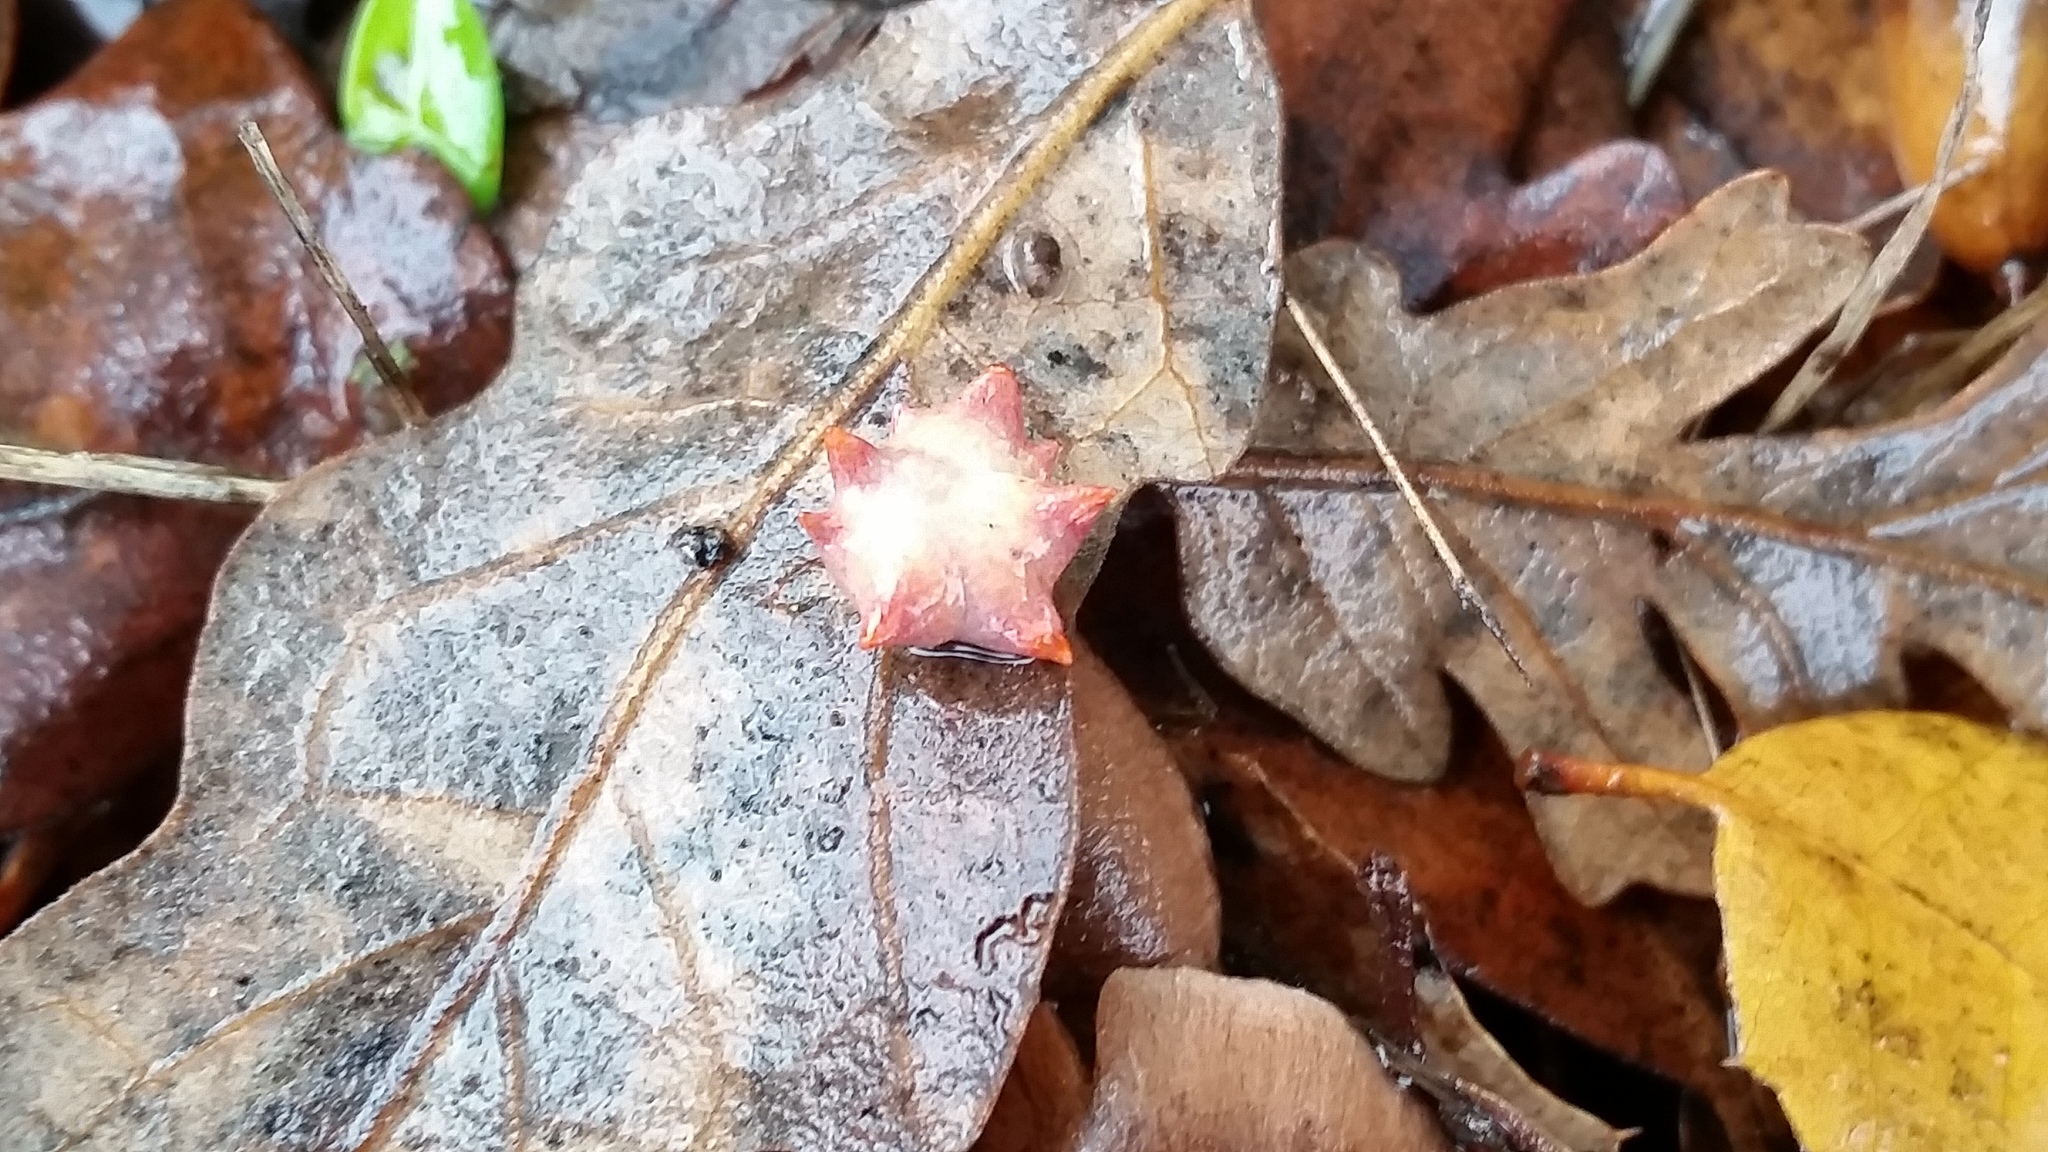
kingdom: Animalia
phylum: Arthropoda
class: Insecta
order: Hymenoptera
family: Cynipidae
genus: Cynips
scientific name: Cynips douglasi
